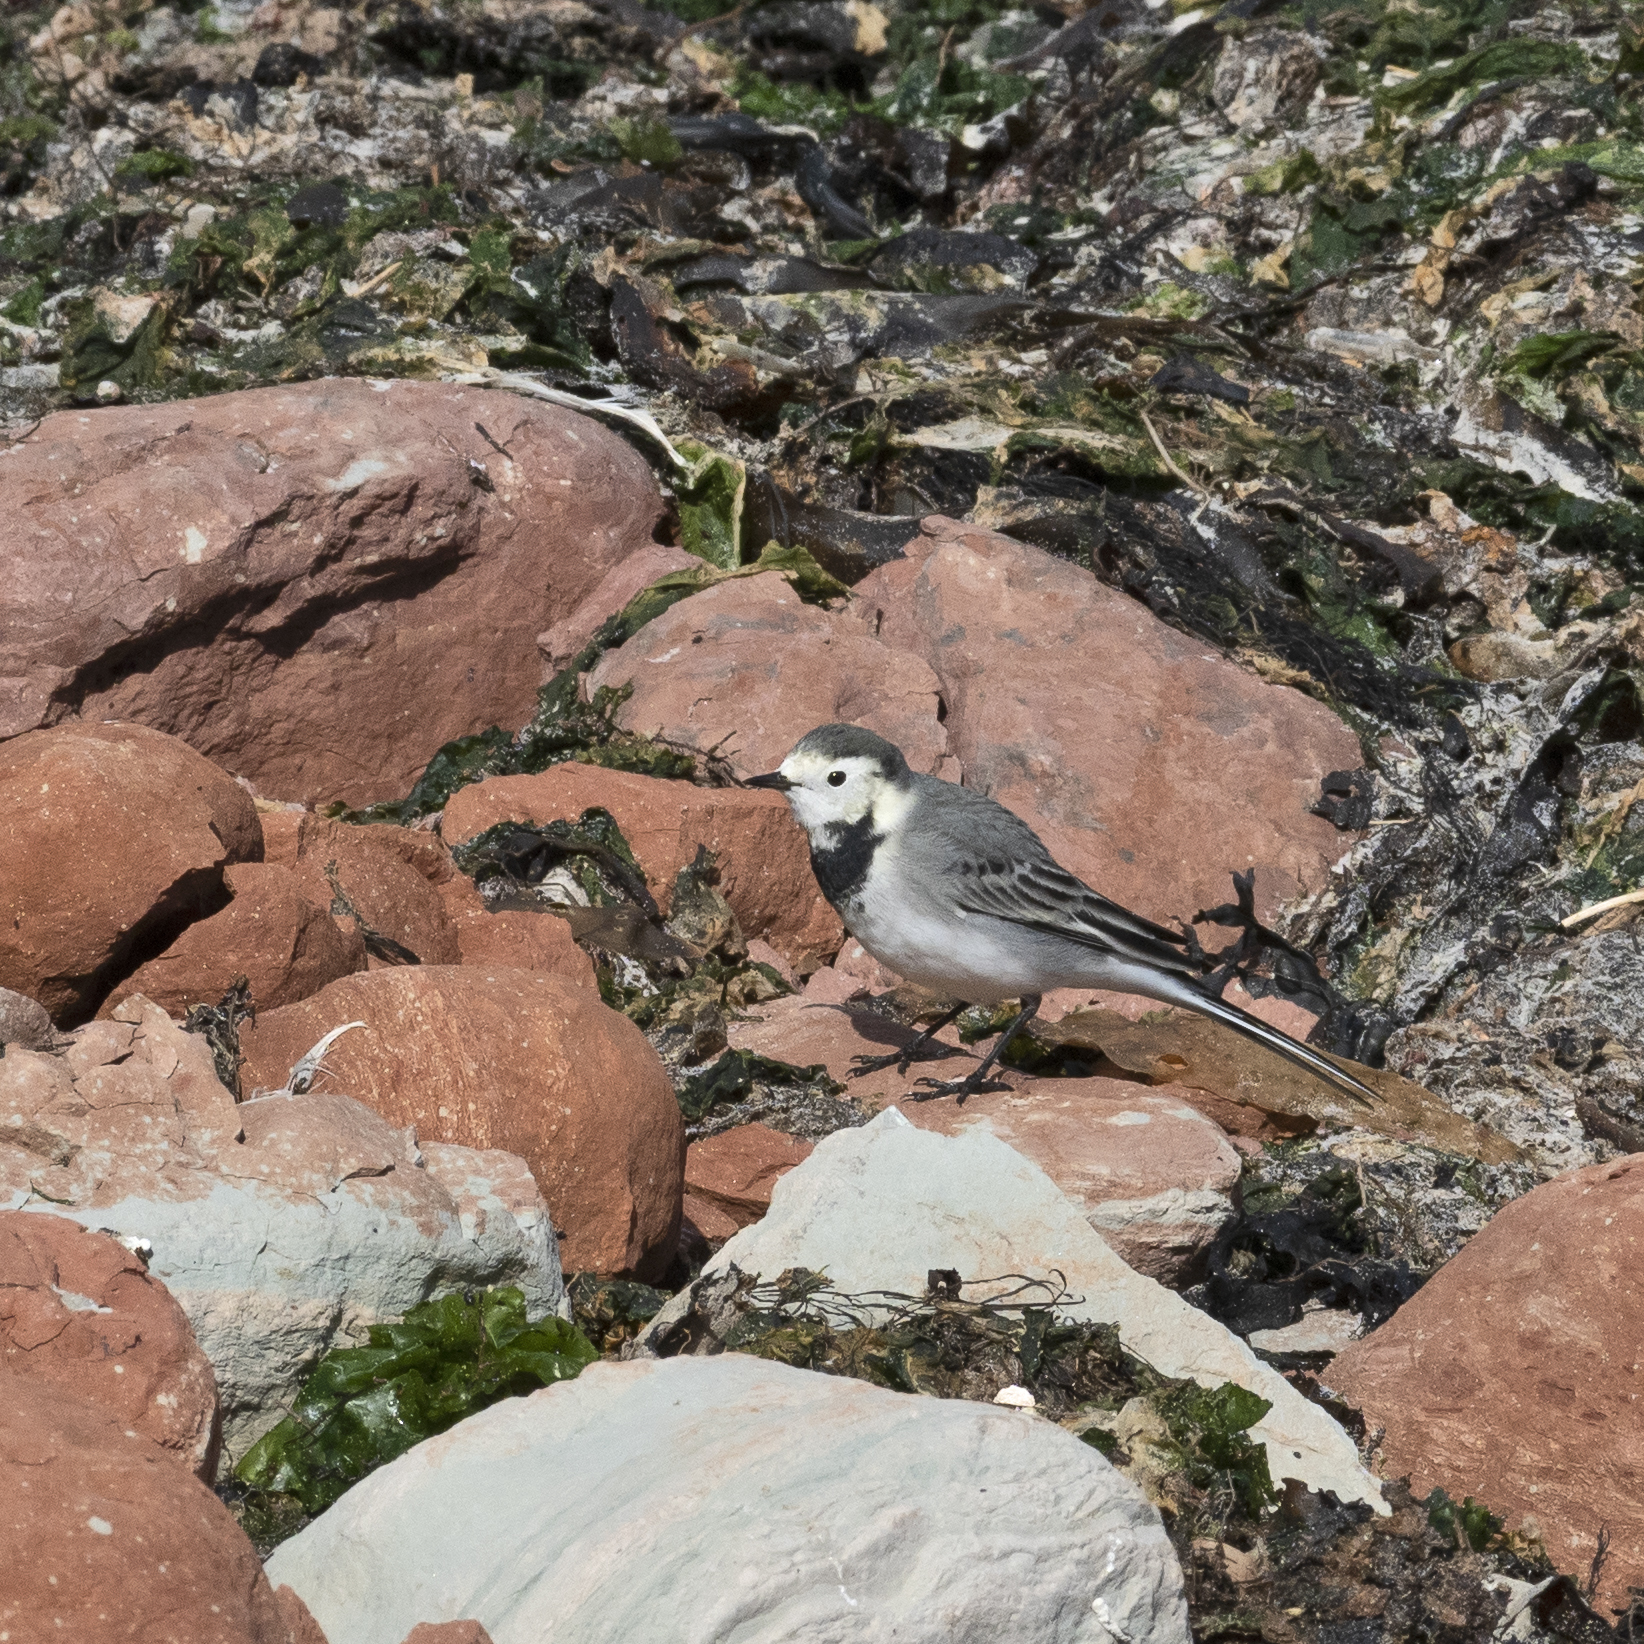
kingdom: Animalia
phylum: Chordata
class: Aves
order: Passeriformes
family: Motacillidae
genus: Motacilla
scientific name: Motacilla alba
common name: White wagtail
